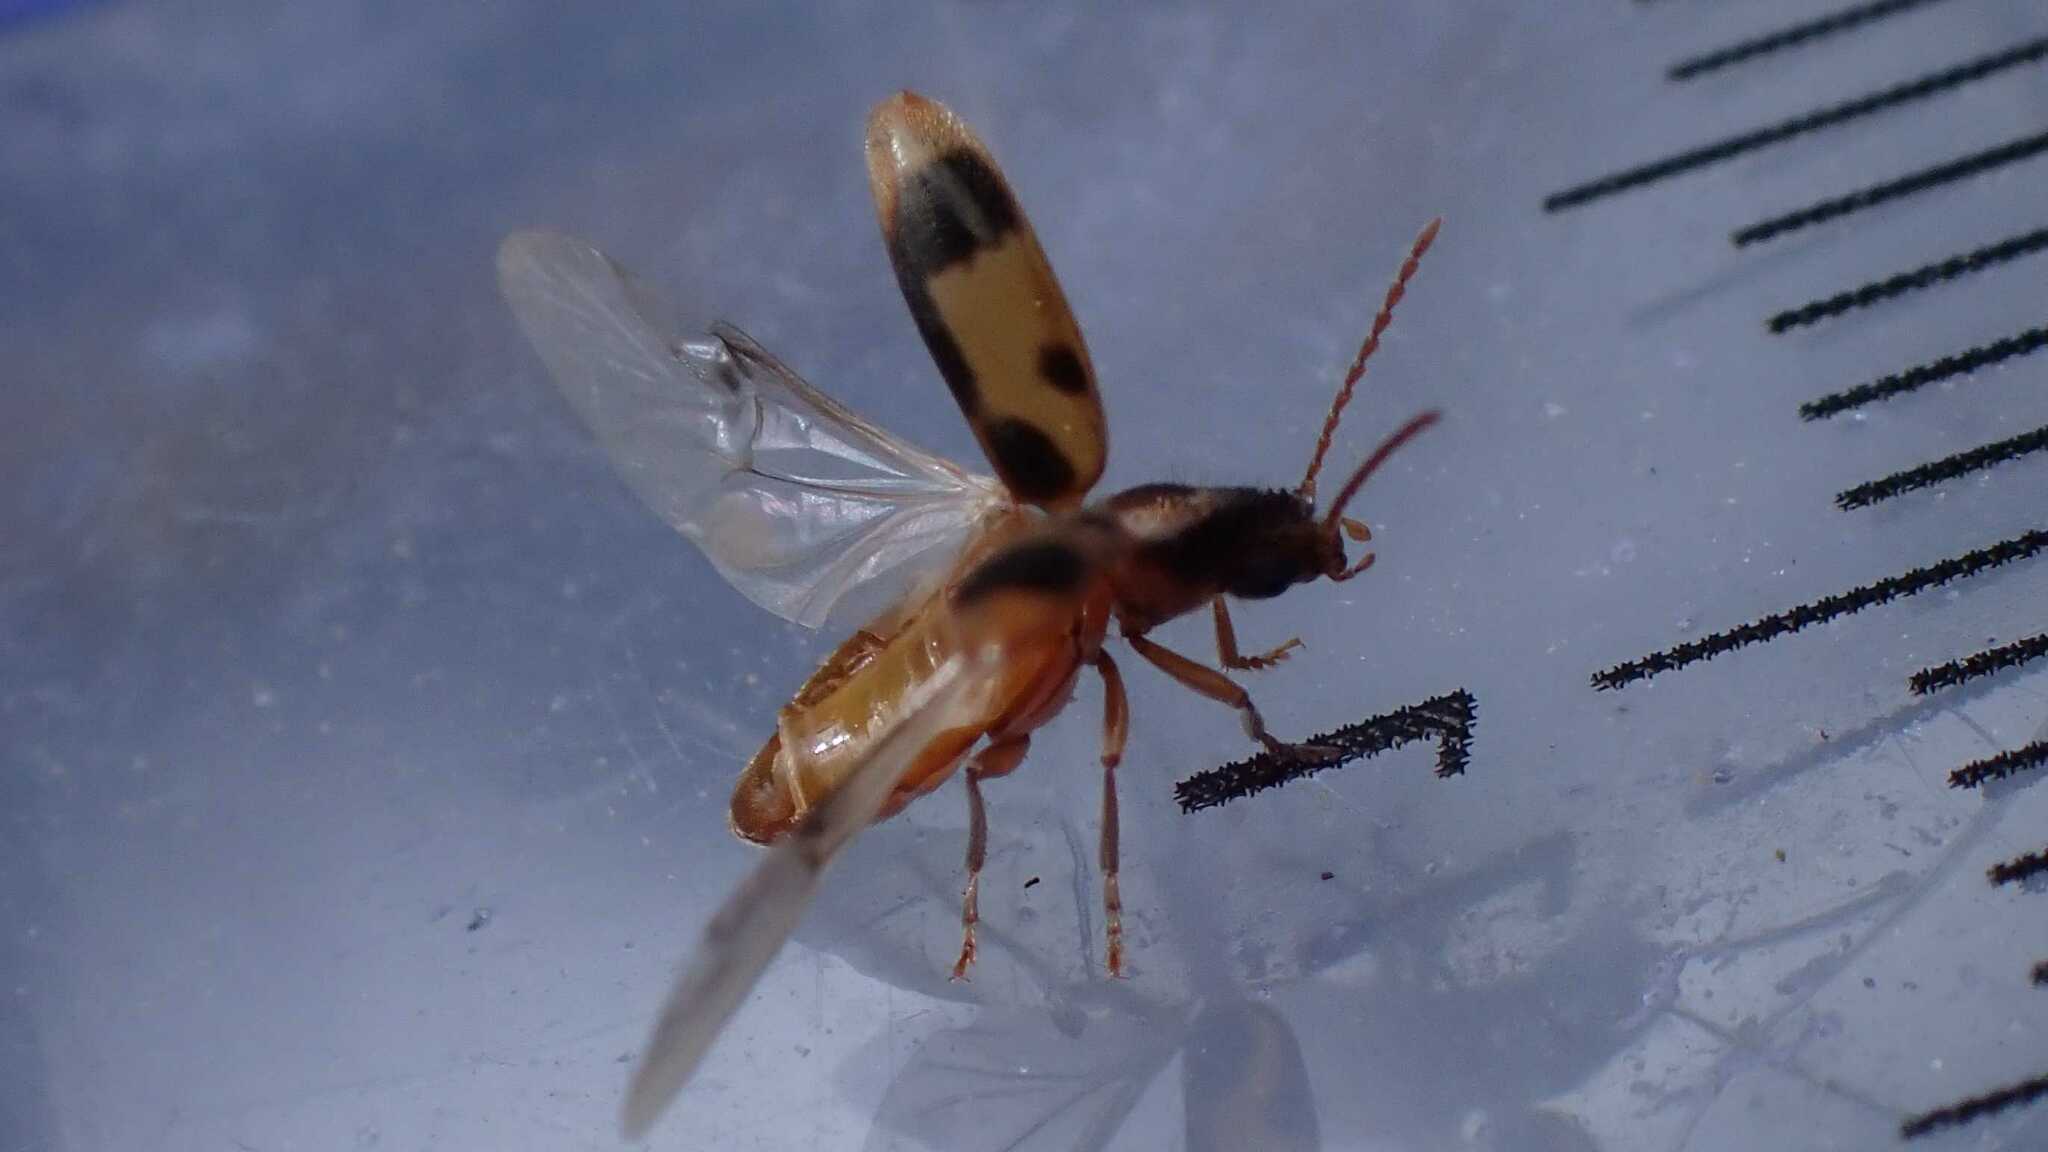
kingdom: Animalia
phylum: Arthropoda
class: Insecta
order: Coleoptera
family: Anthicidae
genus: Notoxus
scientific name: Notoxus monoceros
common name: Monoceros beetle
